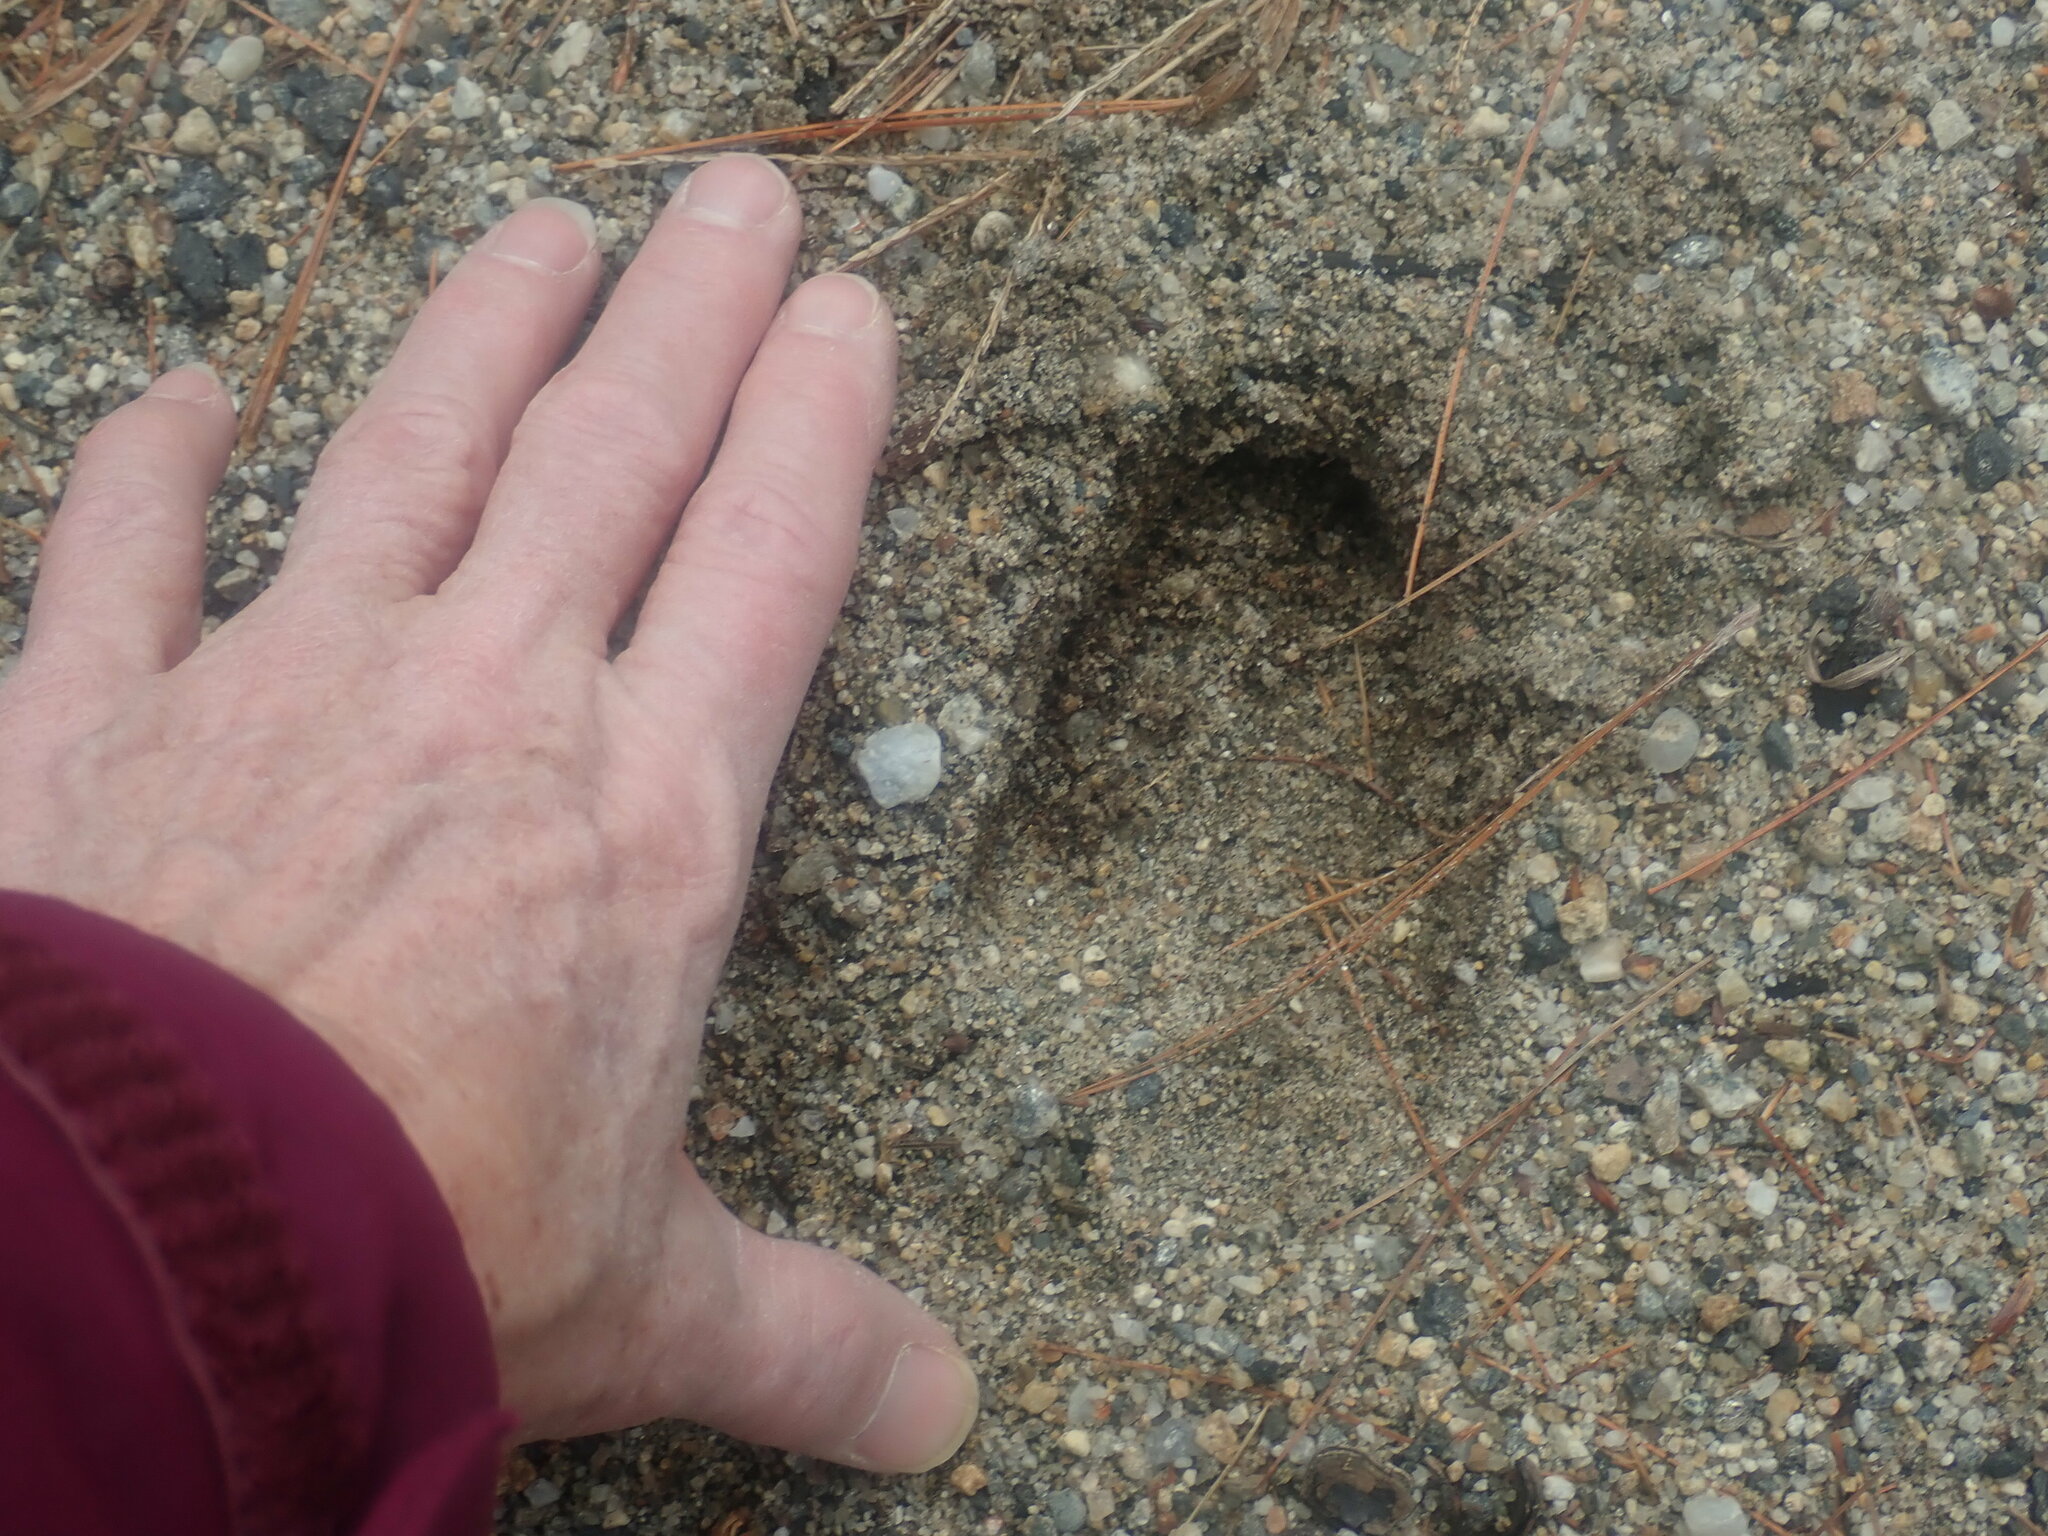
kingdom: Animalia
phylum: Chordata
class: Mammalia
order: Artiodactyla
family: Cervidae
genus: Odocoileus
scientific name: Odocoileus virginianus
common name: White-tailed deer
